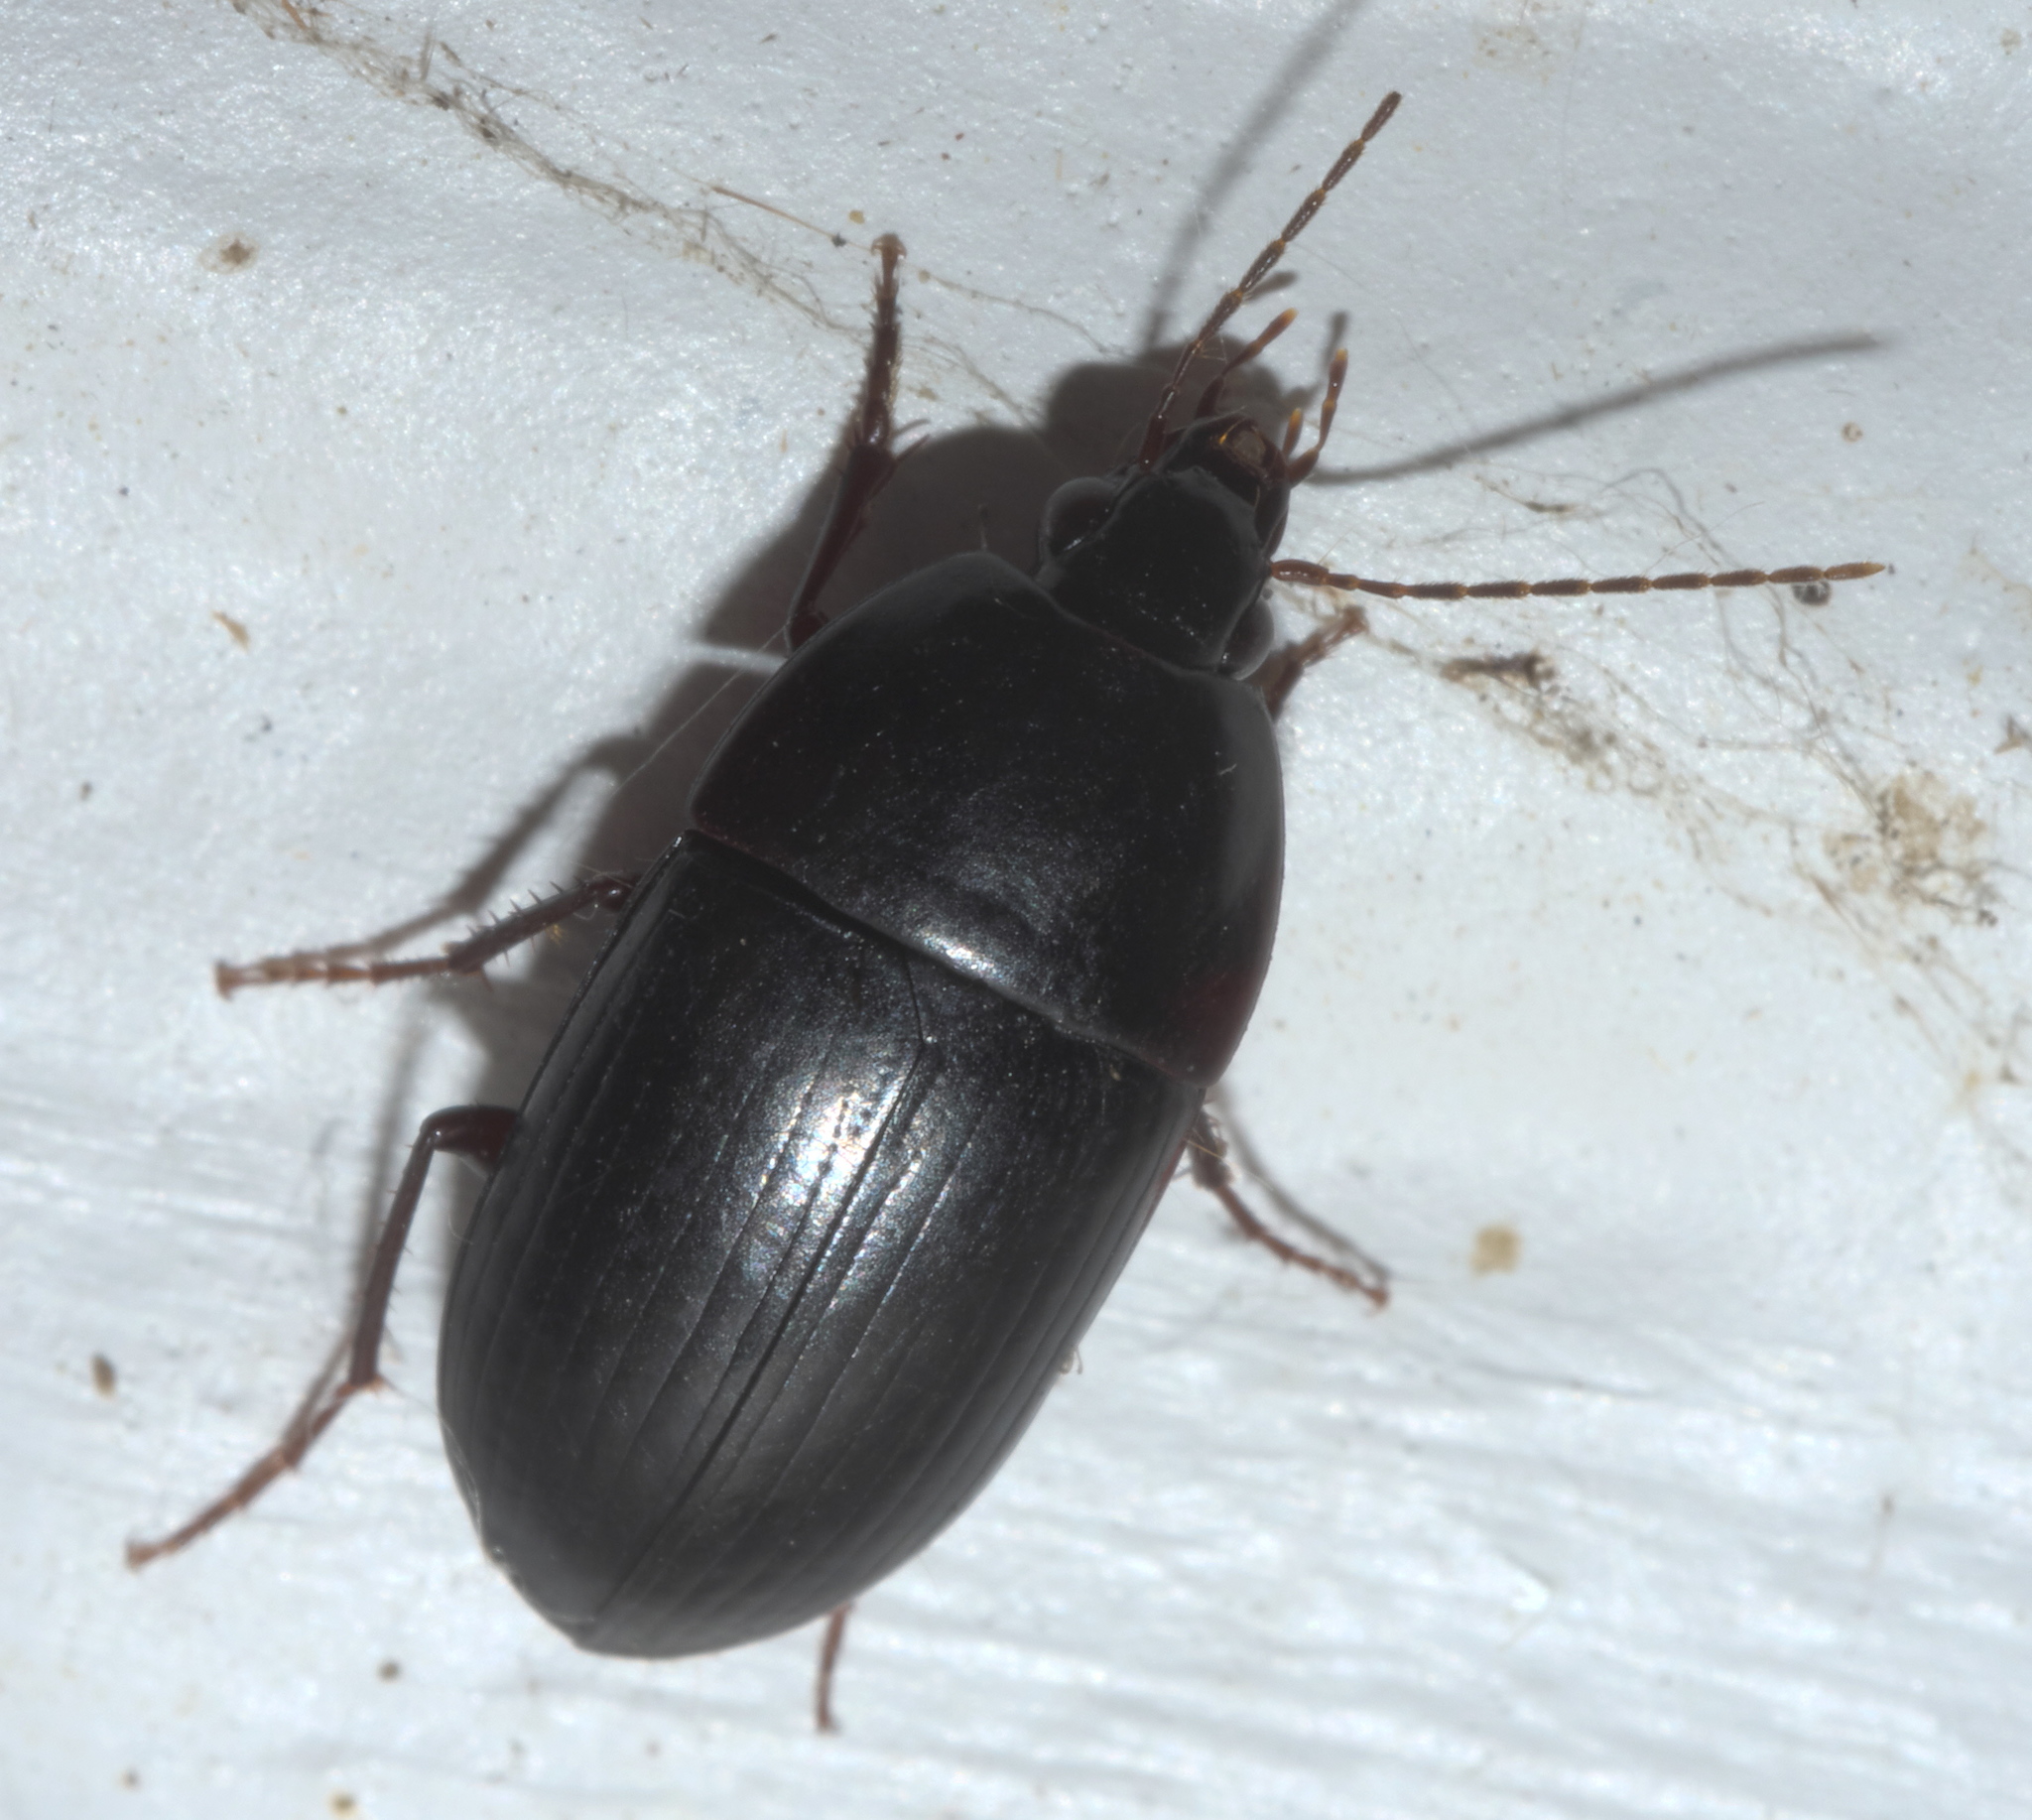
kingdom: Animalia
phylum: Arthropoda
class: Insecta
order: Coleoptera
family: Carabidae
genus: Oodes
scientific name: Oodes amaroides
